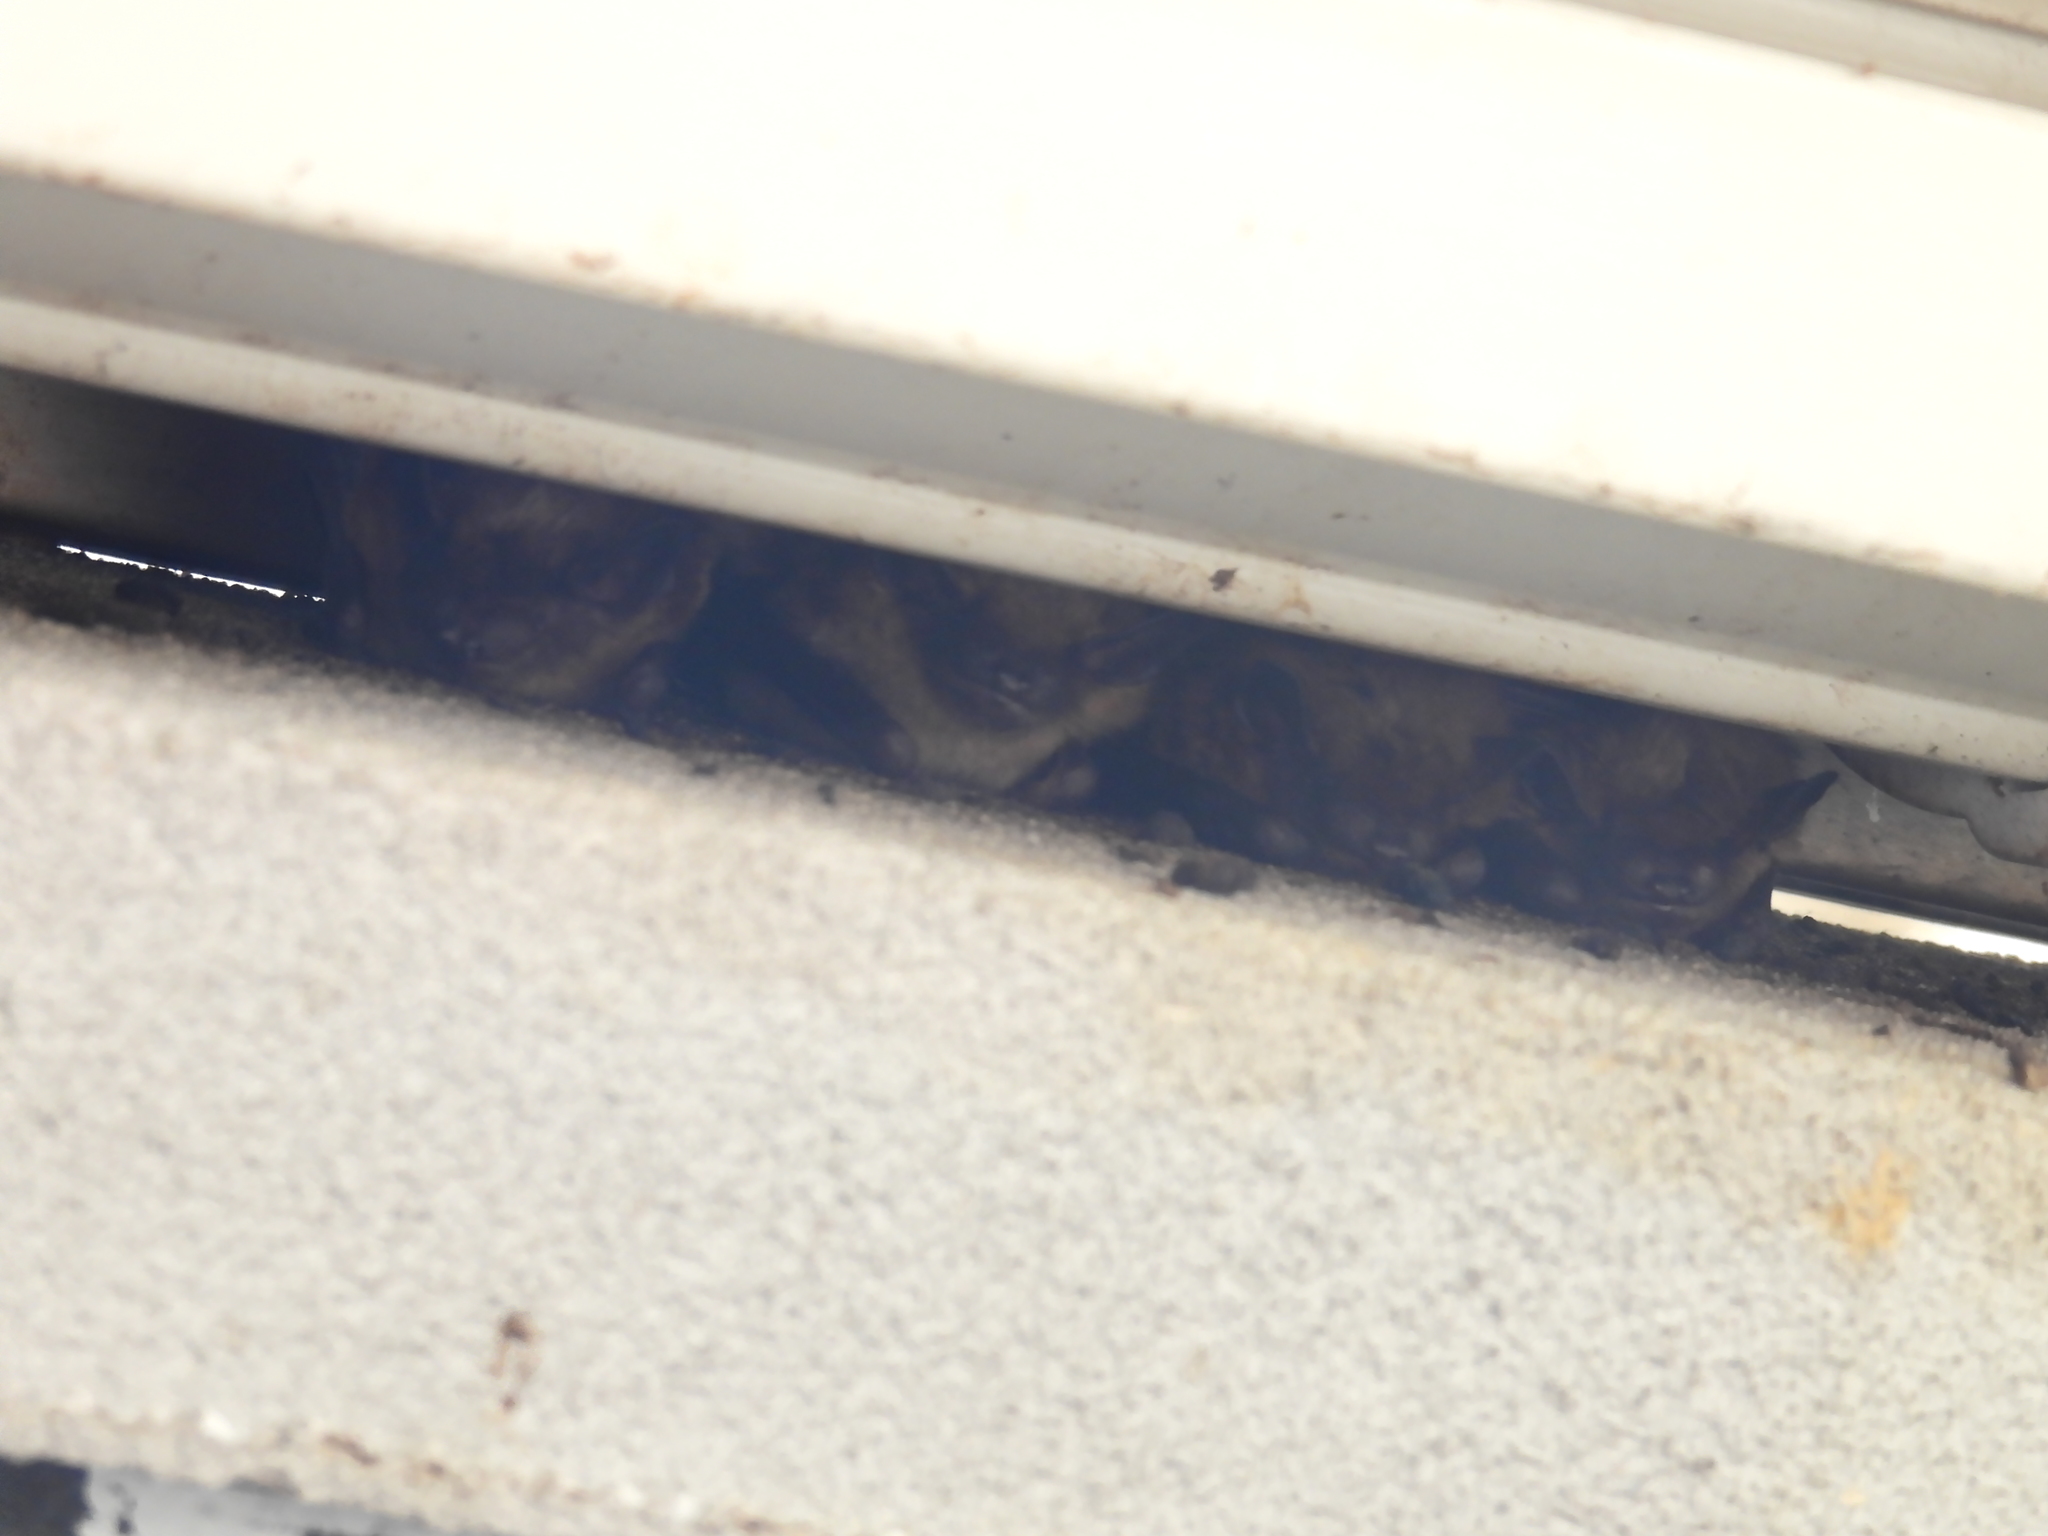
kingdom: Animalia
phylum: Chordata
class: Mammalia
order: Chiroptera
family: Vespertilionidae
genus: Eptesicus
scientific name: Eptesicus fuscus
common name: Big brown bat
